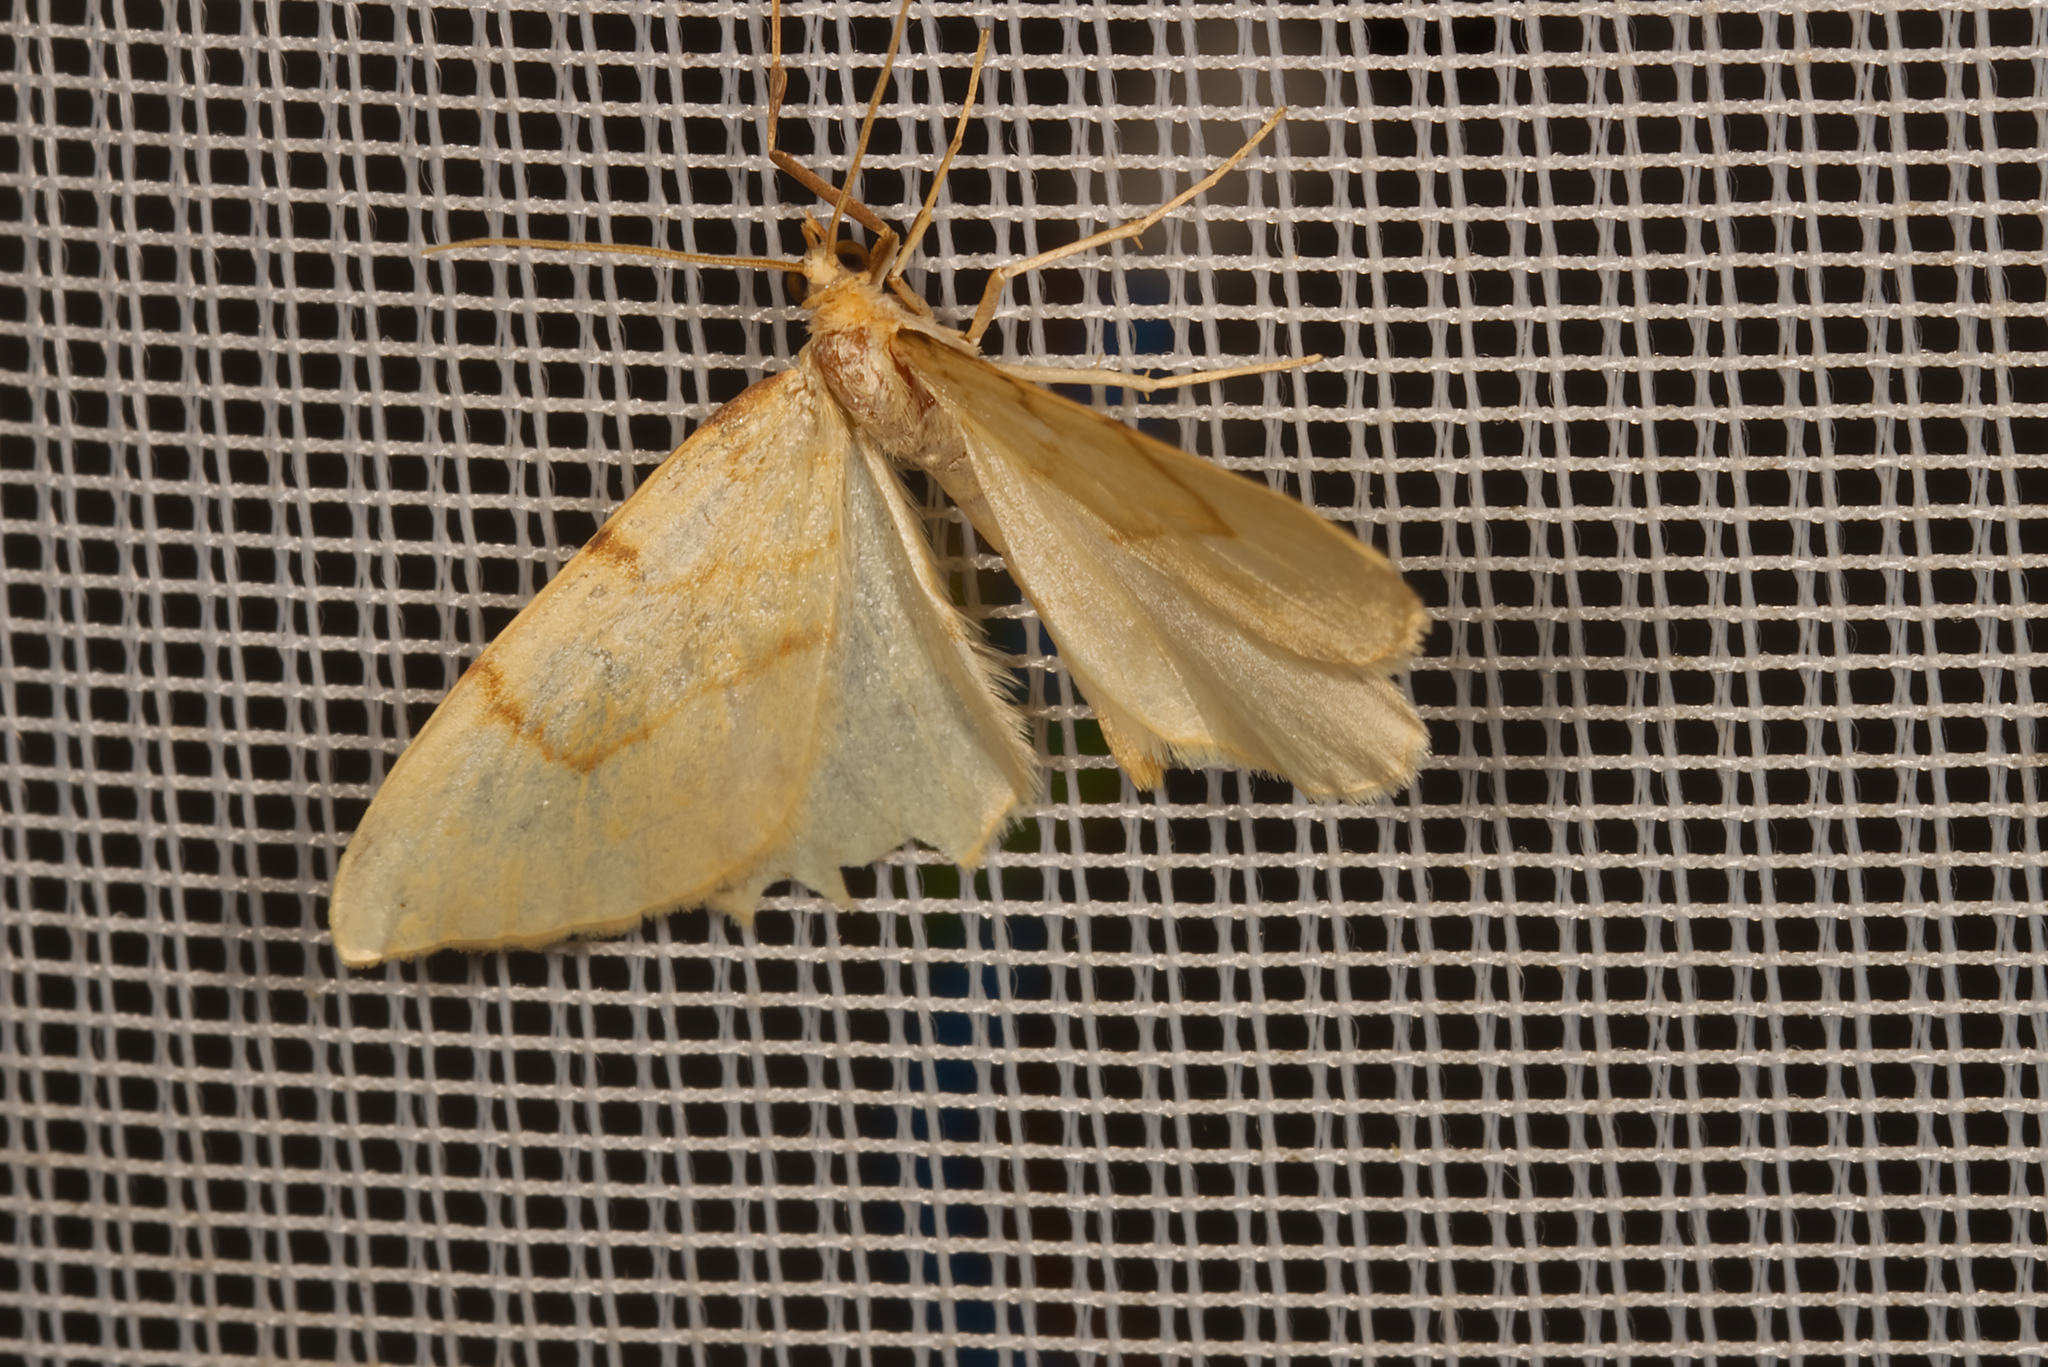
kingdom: Animalia
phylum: Arthropoda
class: Insecta
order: Lepidoptera
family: Geometridae
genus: Eulithis
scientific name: Eulithis pyraliata
